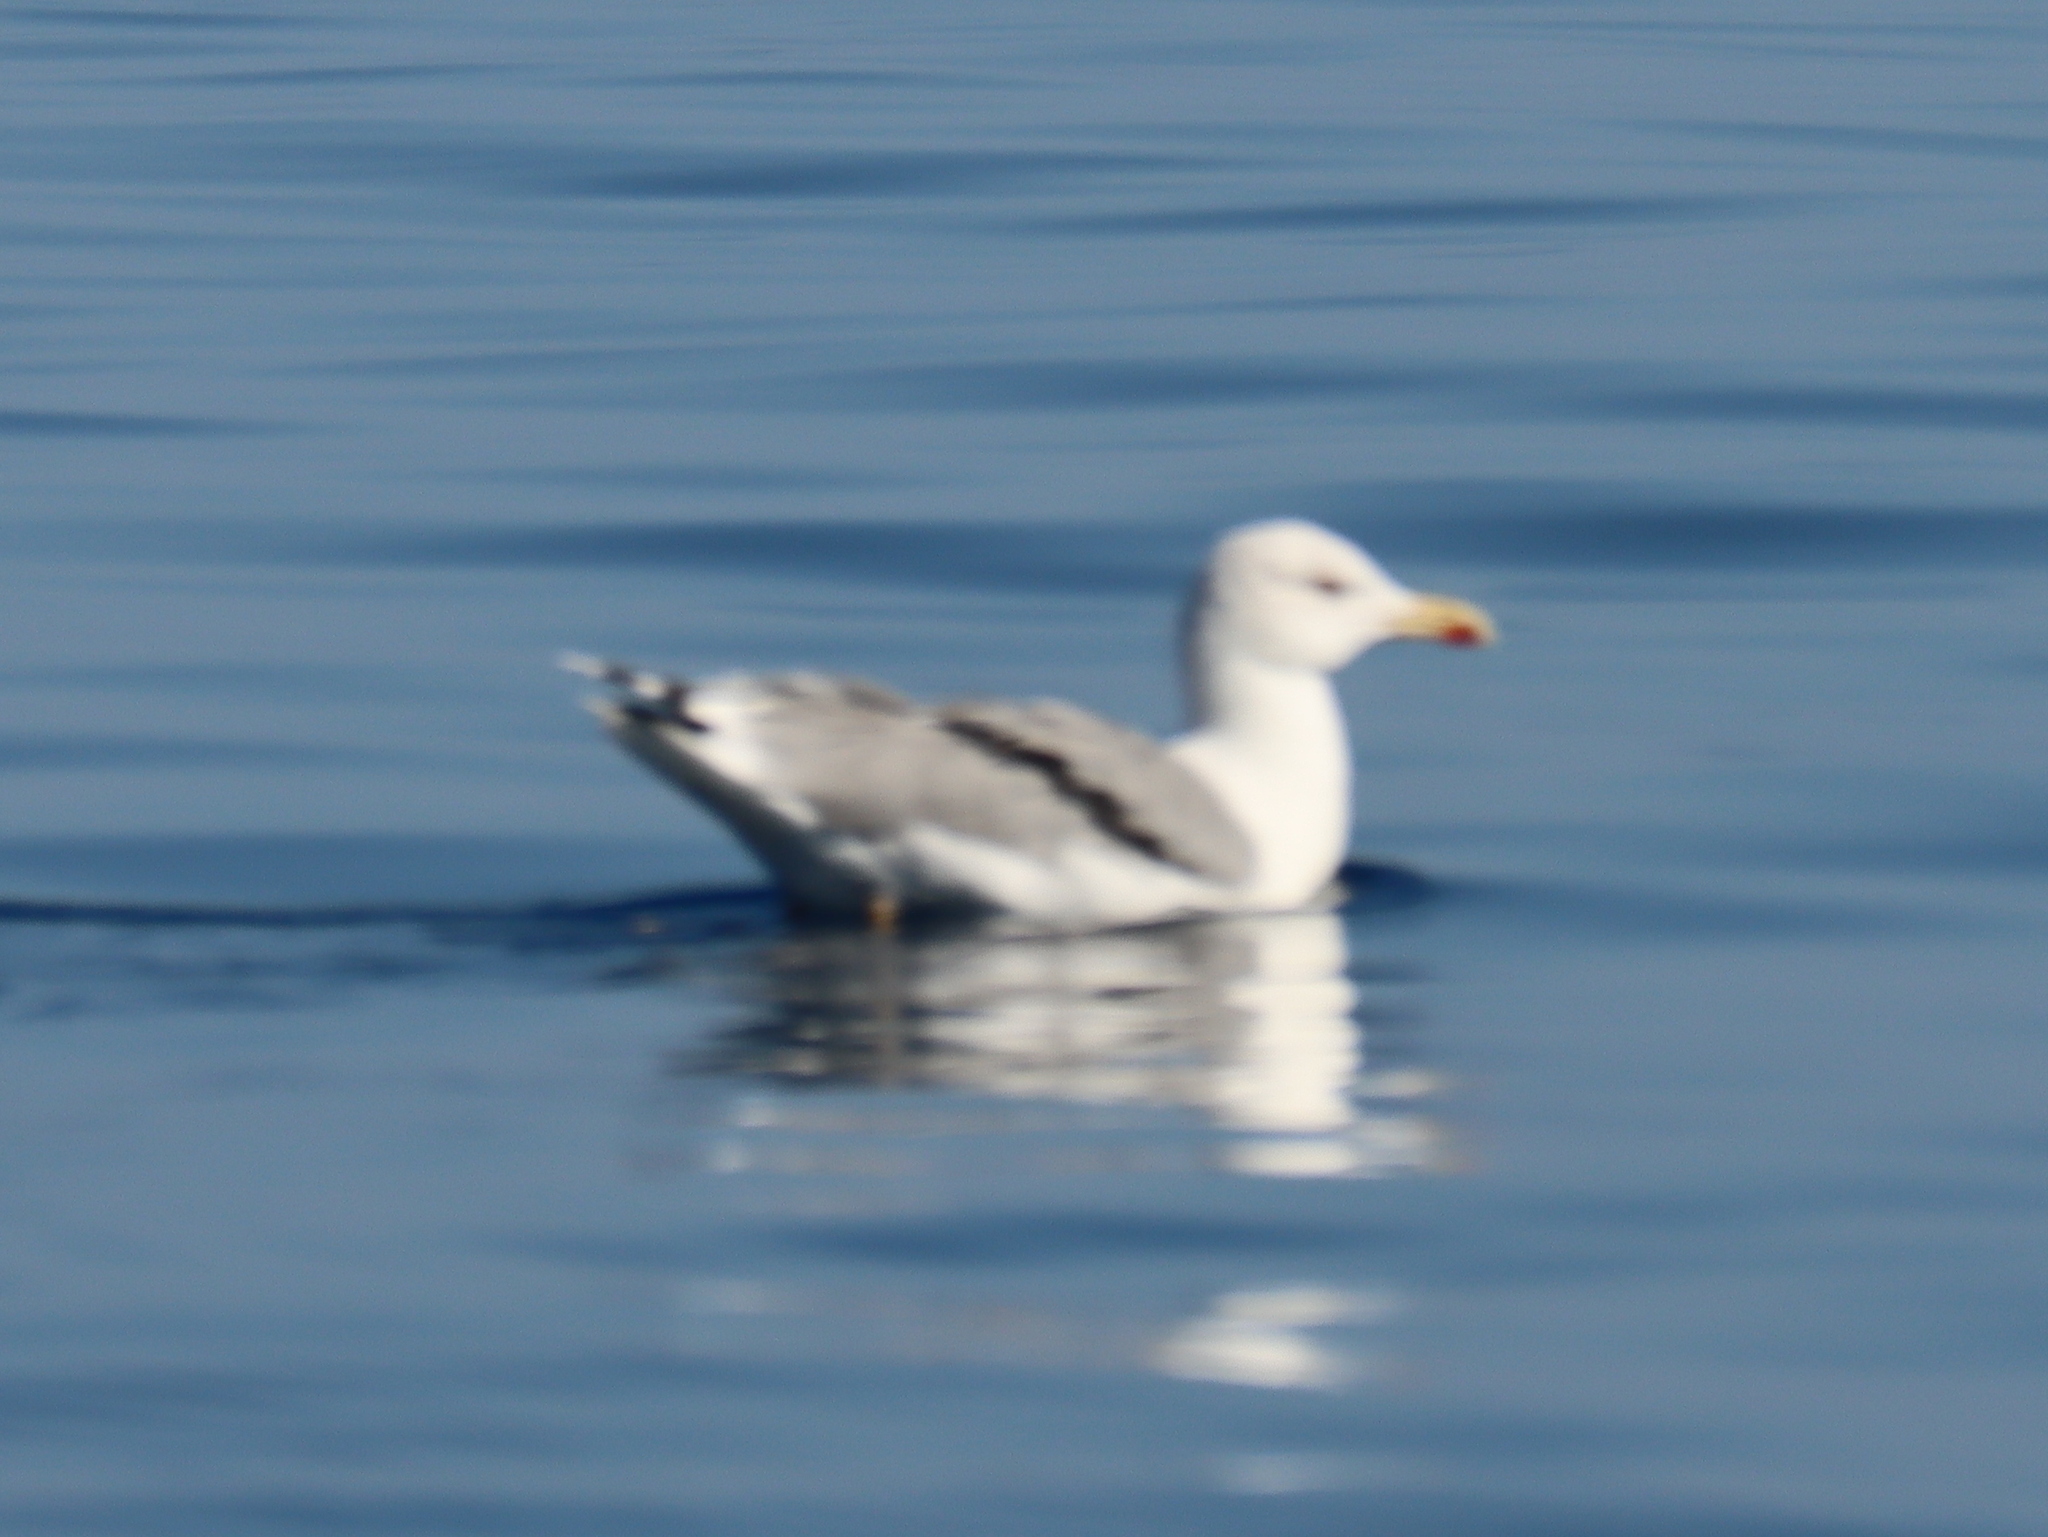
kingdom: Animalia
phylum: Chordata
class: Aves
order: Charadriiformes
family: Laridae
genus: Larus
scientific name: Larus michahellis
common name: Yellow-legged gull
